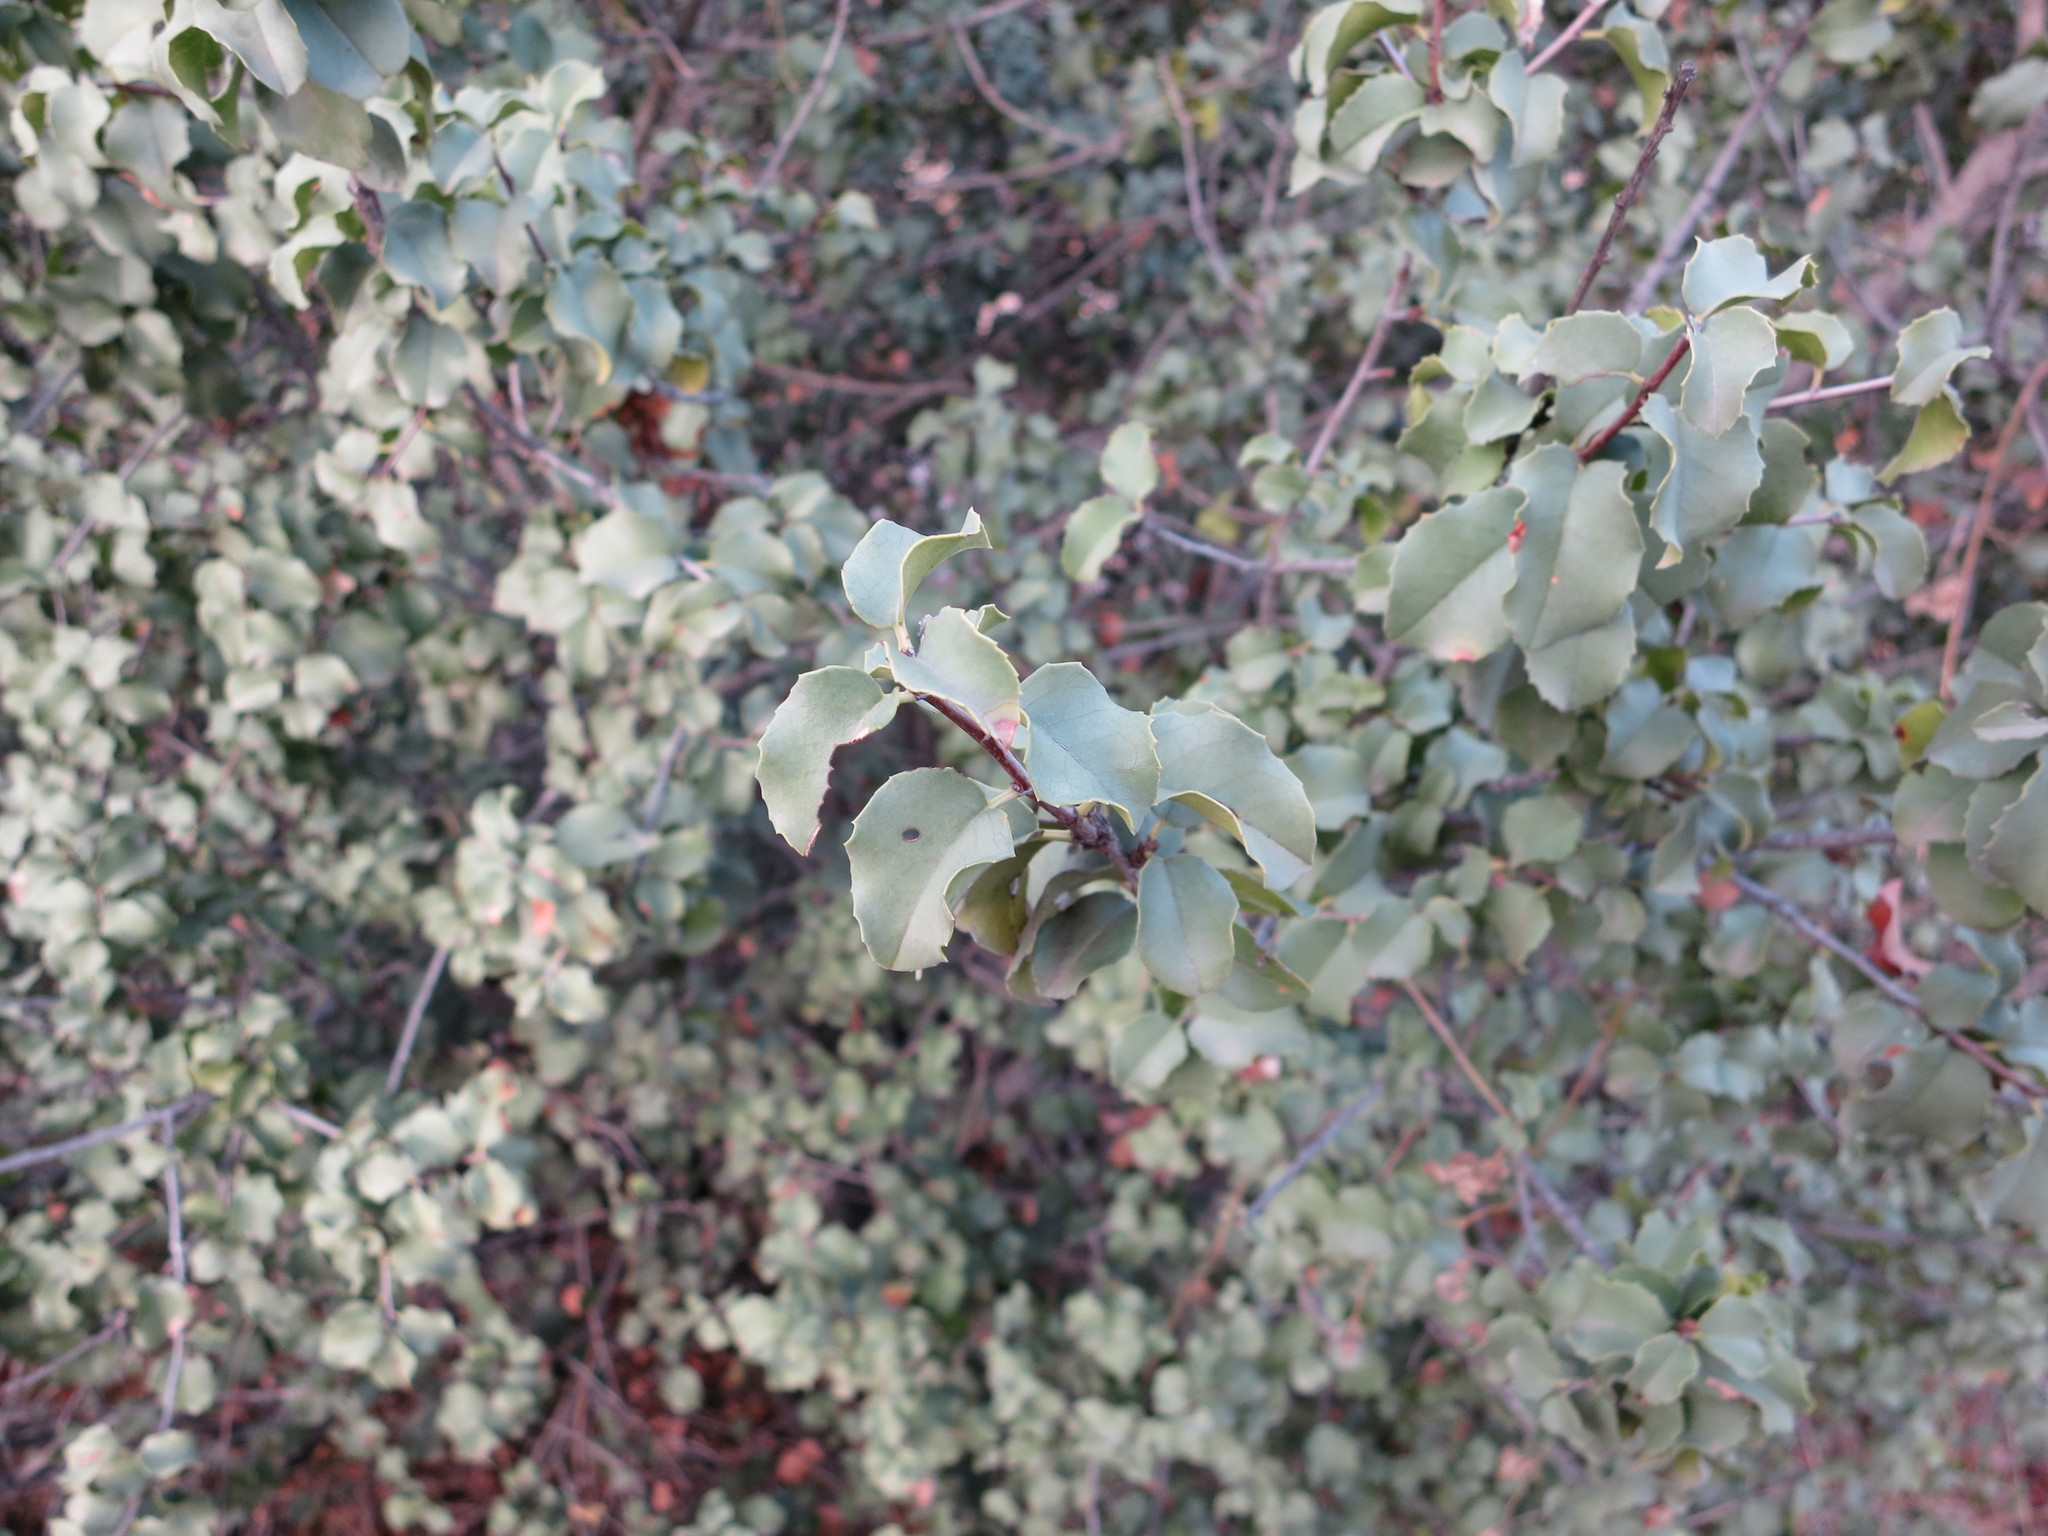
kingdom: Plantae
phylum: Tracheophyta
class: Magnoliopsida
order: Rosales
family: Rosaceae
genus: Prunus
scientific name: Prunus ilicifolia
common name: Hollyleaf cherry
